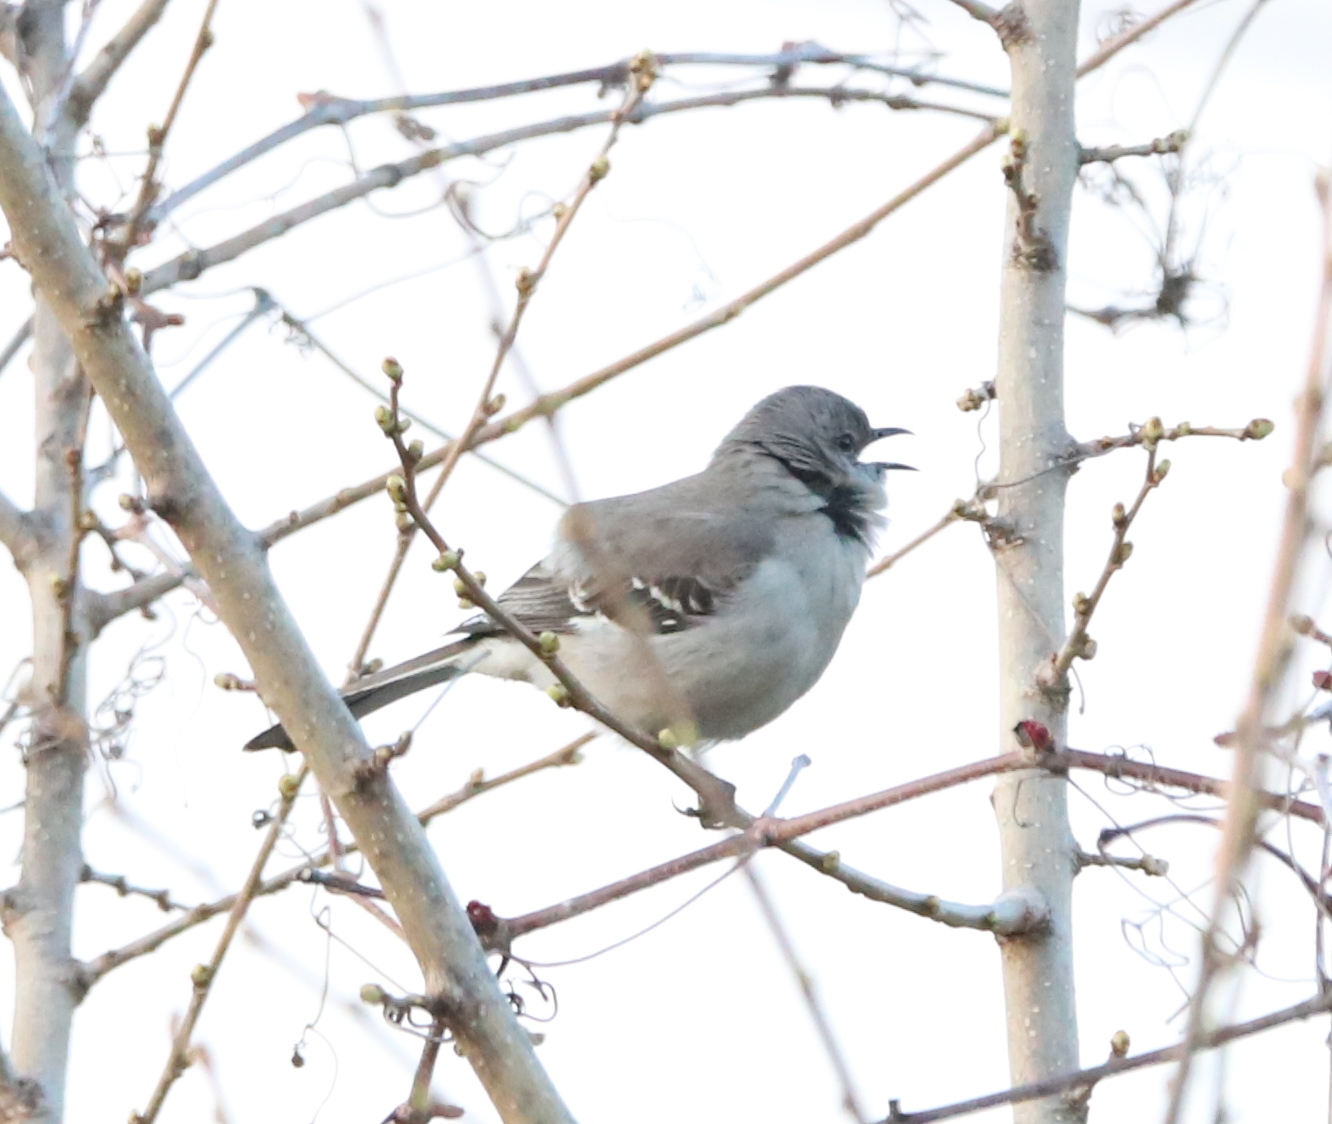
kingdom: Animalia
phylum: Chordata
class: Aves
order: Passeriformes
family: Mimidae
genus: Mimus
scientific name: Mimus polyglottos
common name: Northern mockingbird
